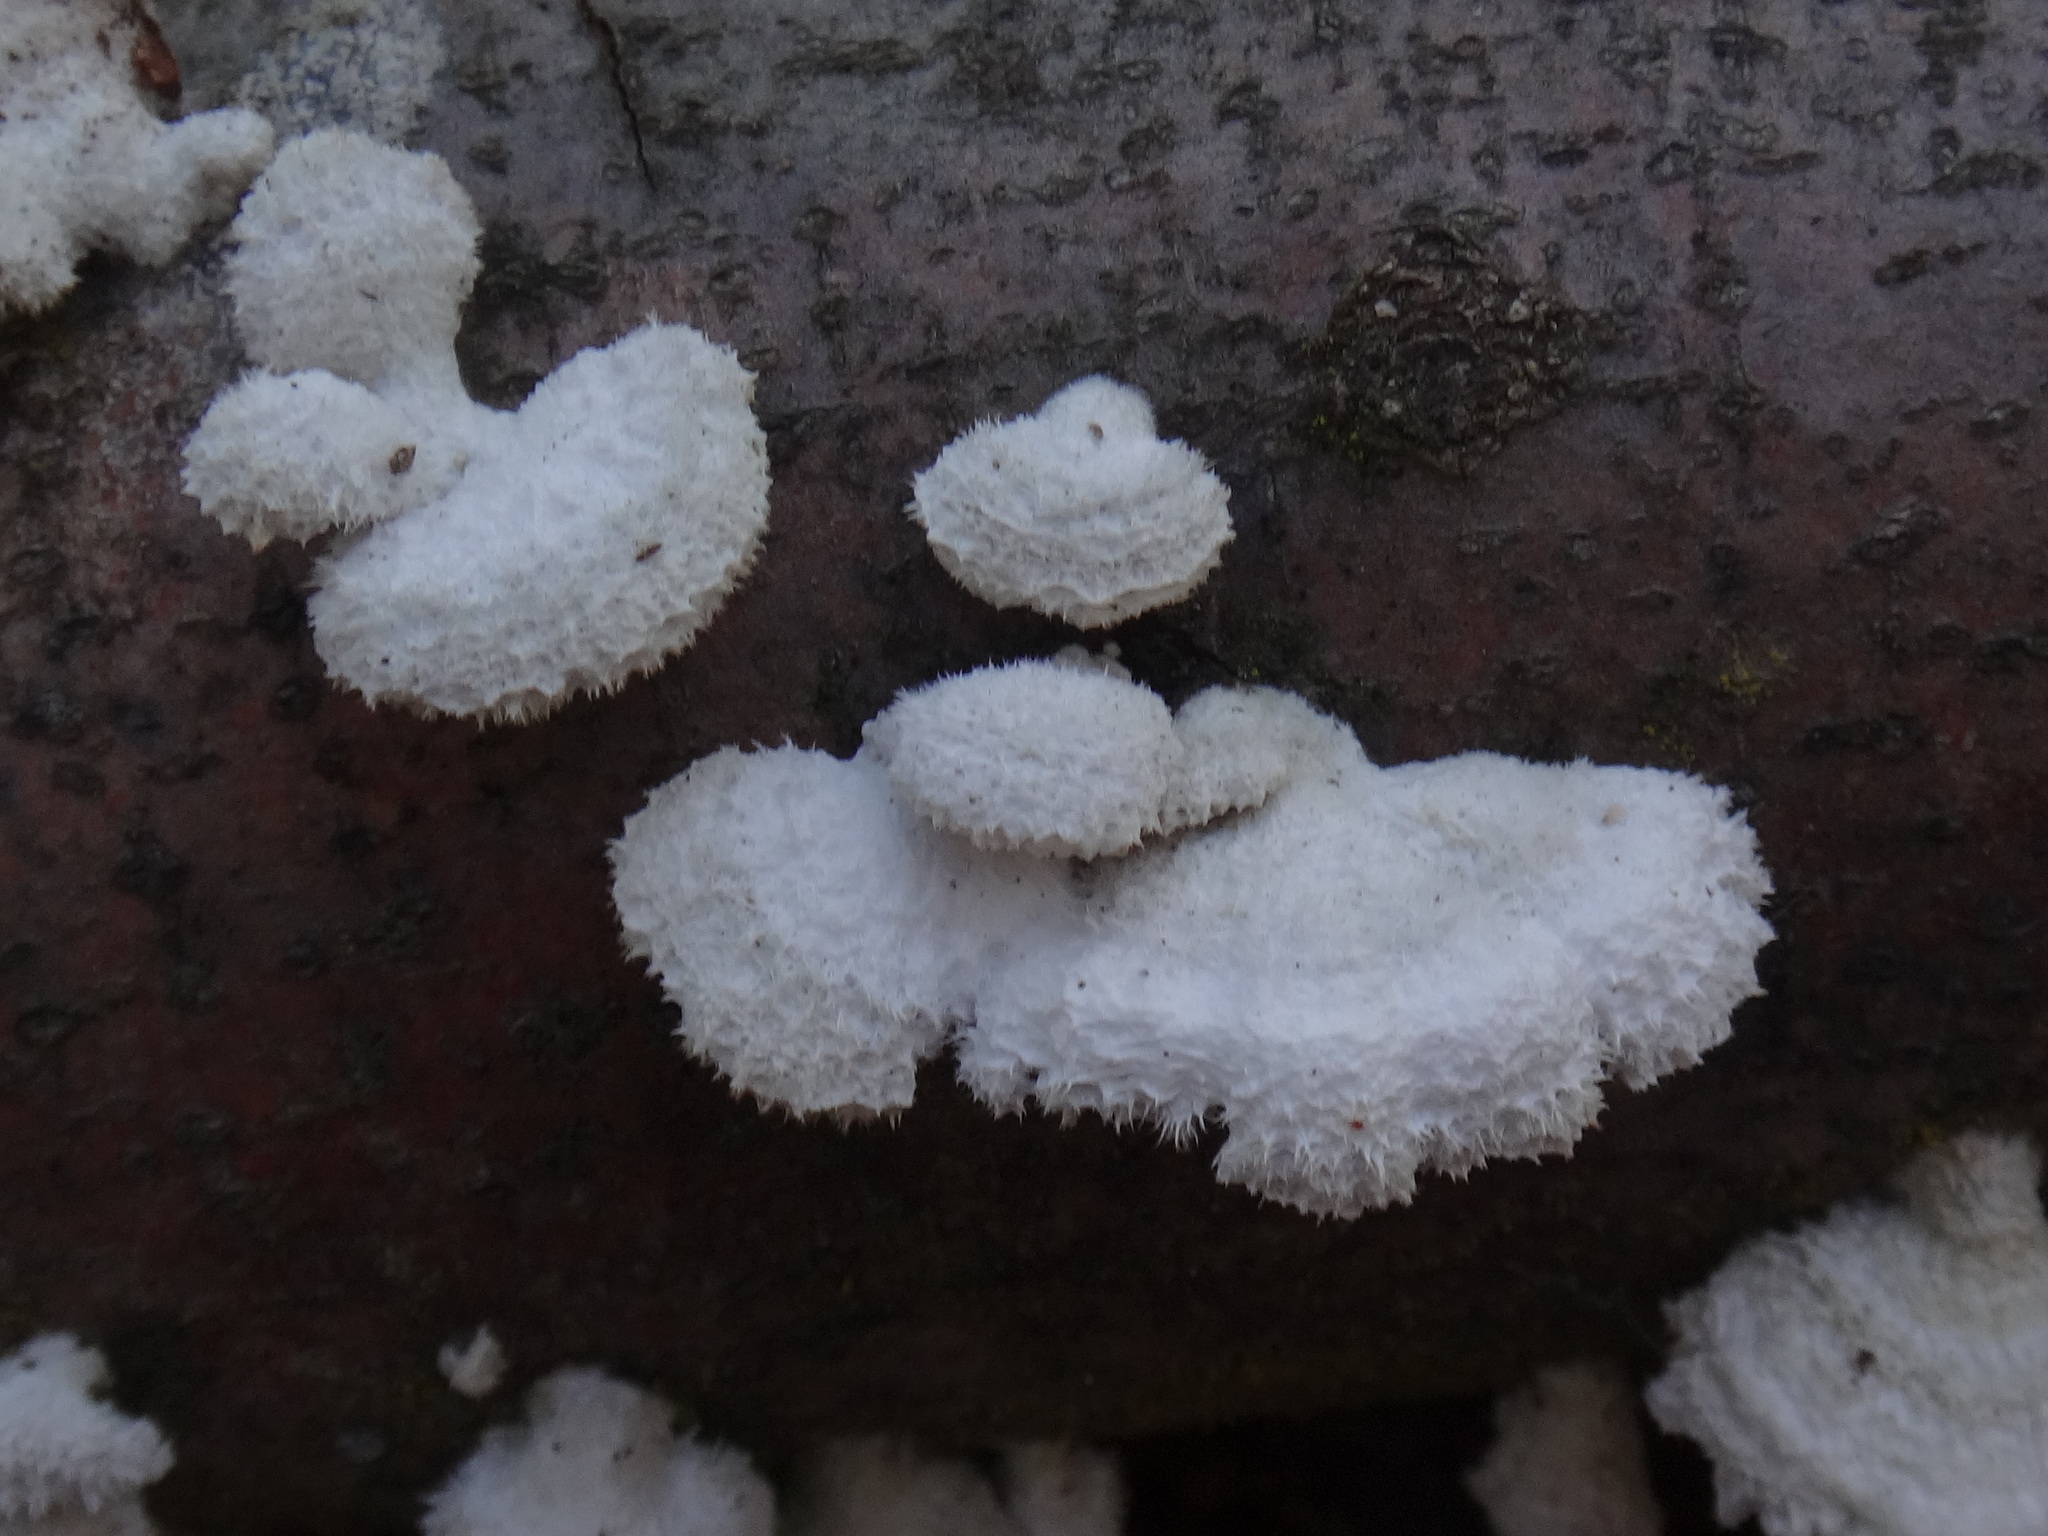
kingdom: Fungi
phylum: Basidiomycota
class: Agaricomycetes
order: Agaricales
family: Schizophyllaceae
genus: Schizophyllum
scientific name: Schizophyllum commune
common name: Common porecrust
